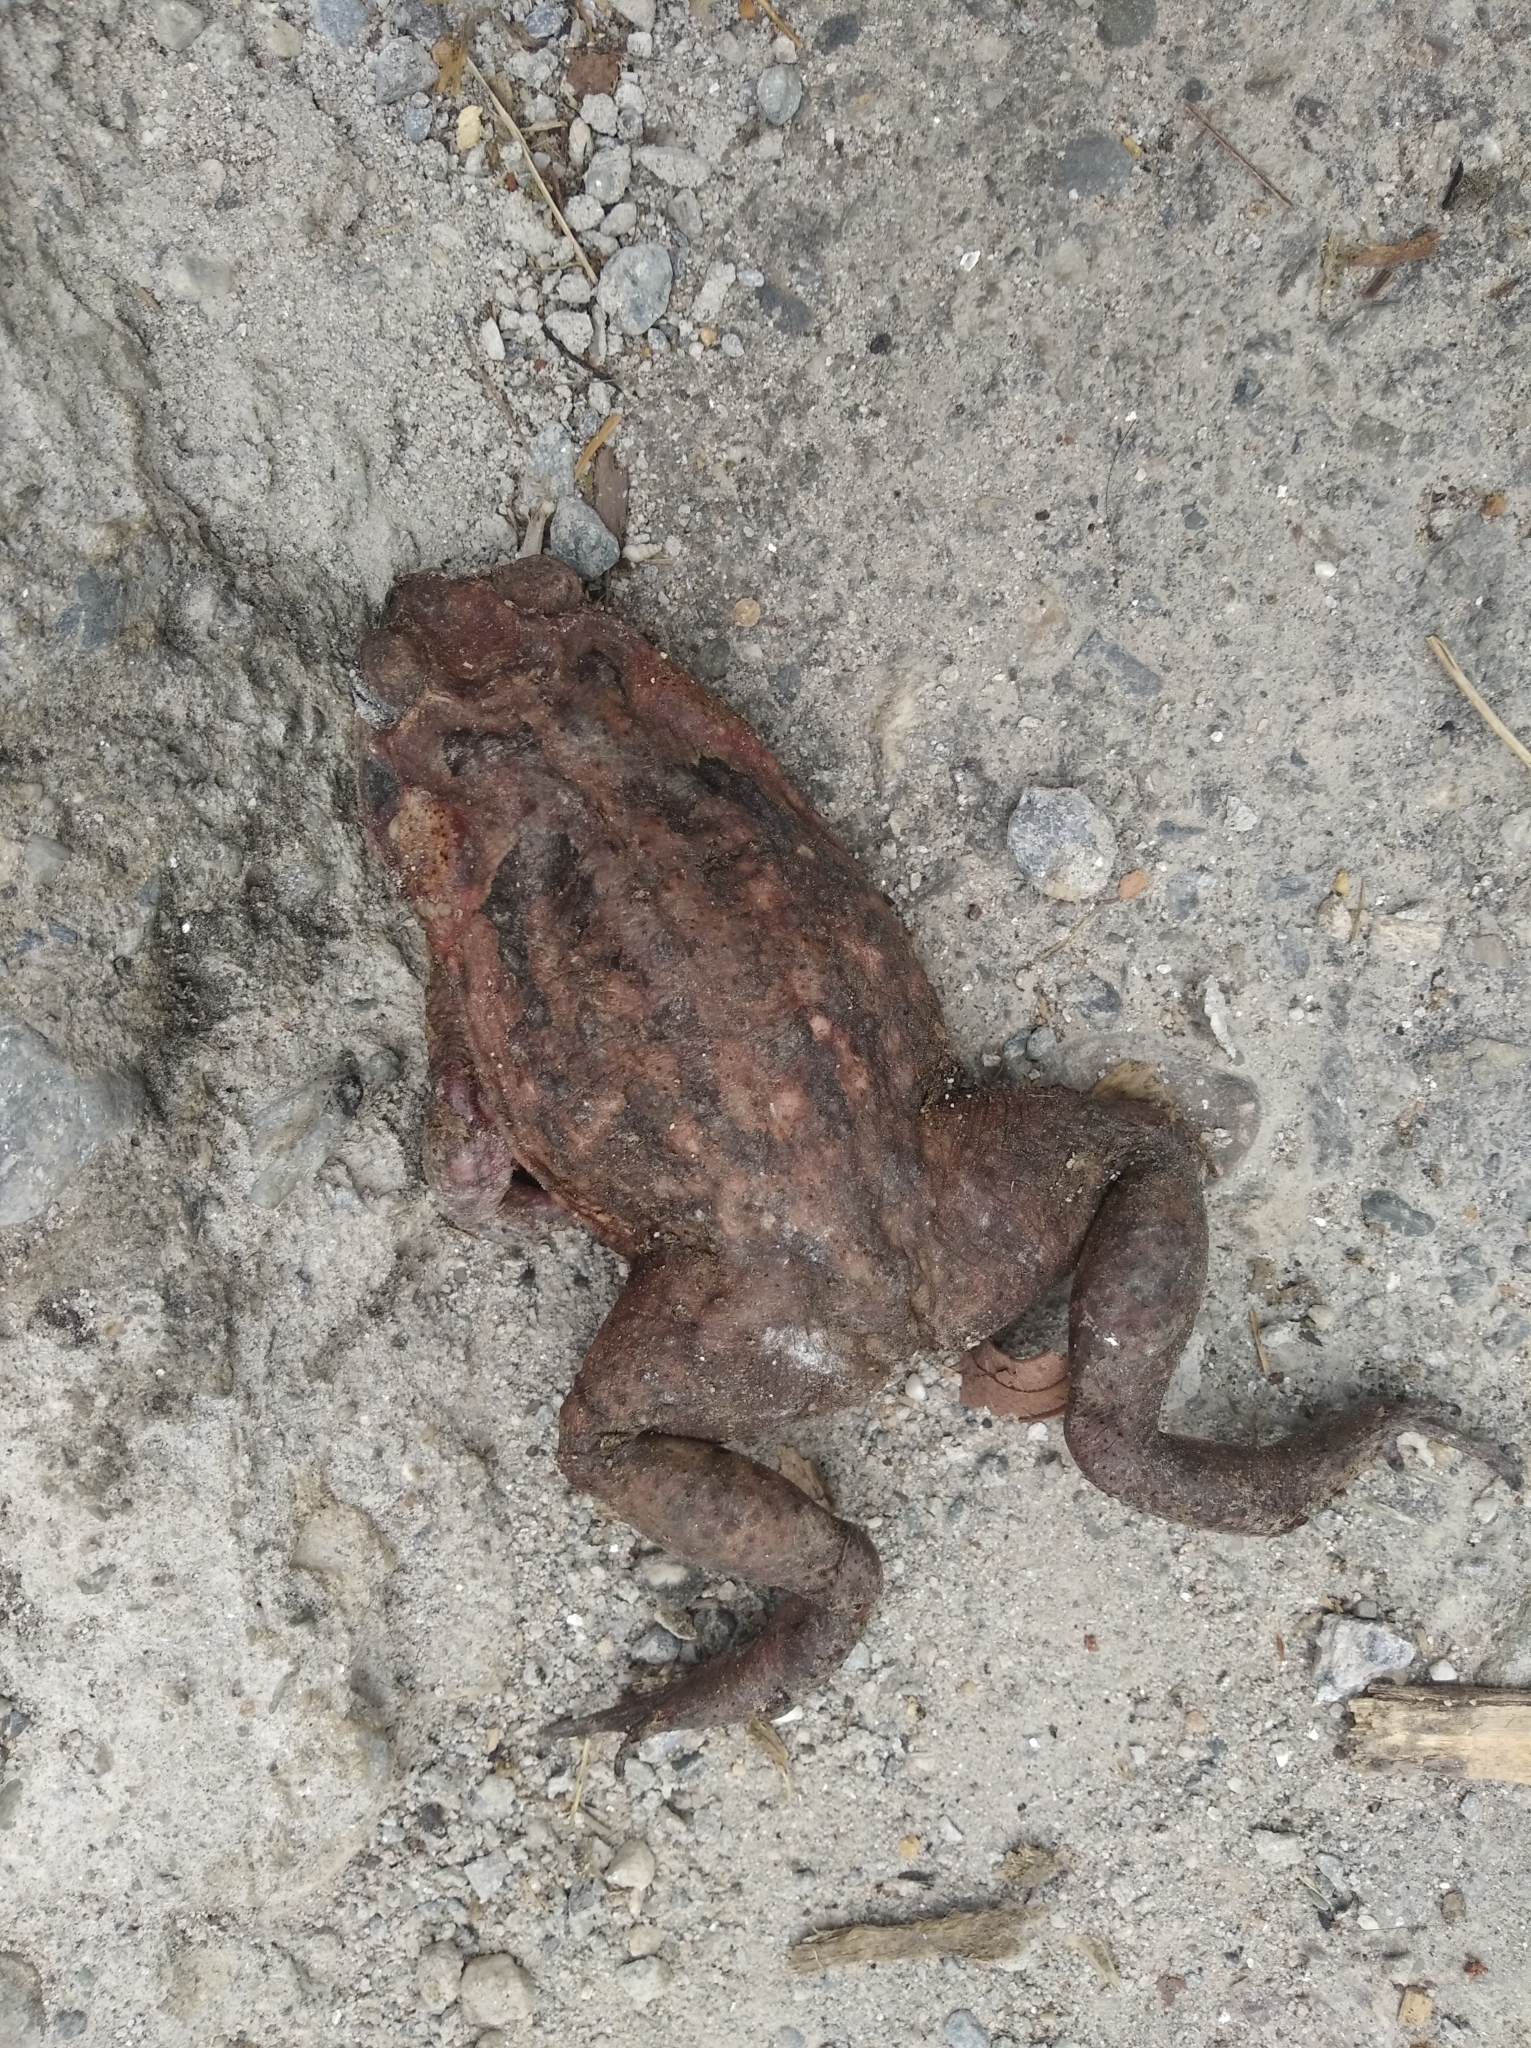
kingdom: Animalia
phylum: Chordata
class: Amphibia
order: Anura
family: Bufonidae
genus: Rhinella
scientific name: Rhinella horribilis
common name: Mesoamerican cane toad
